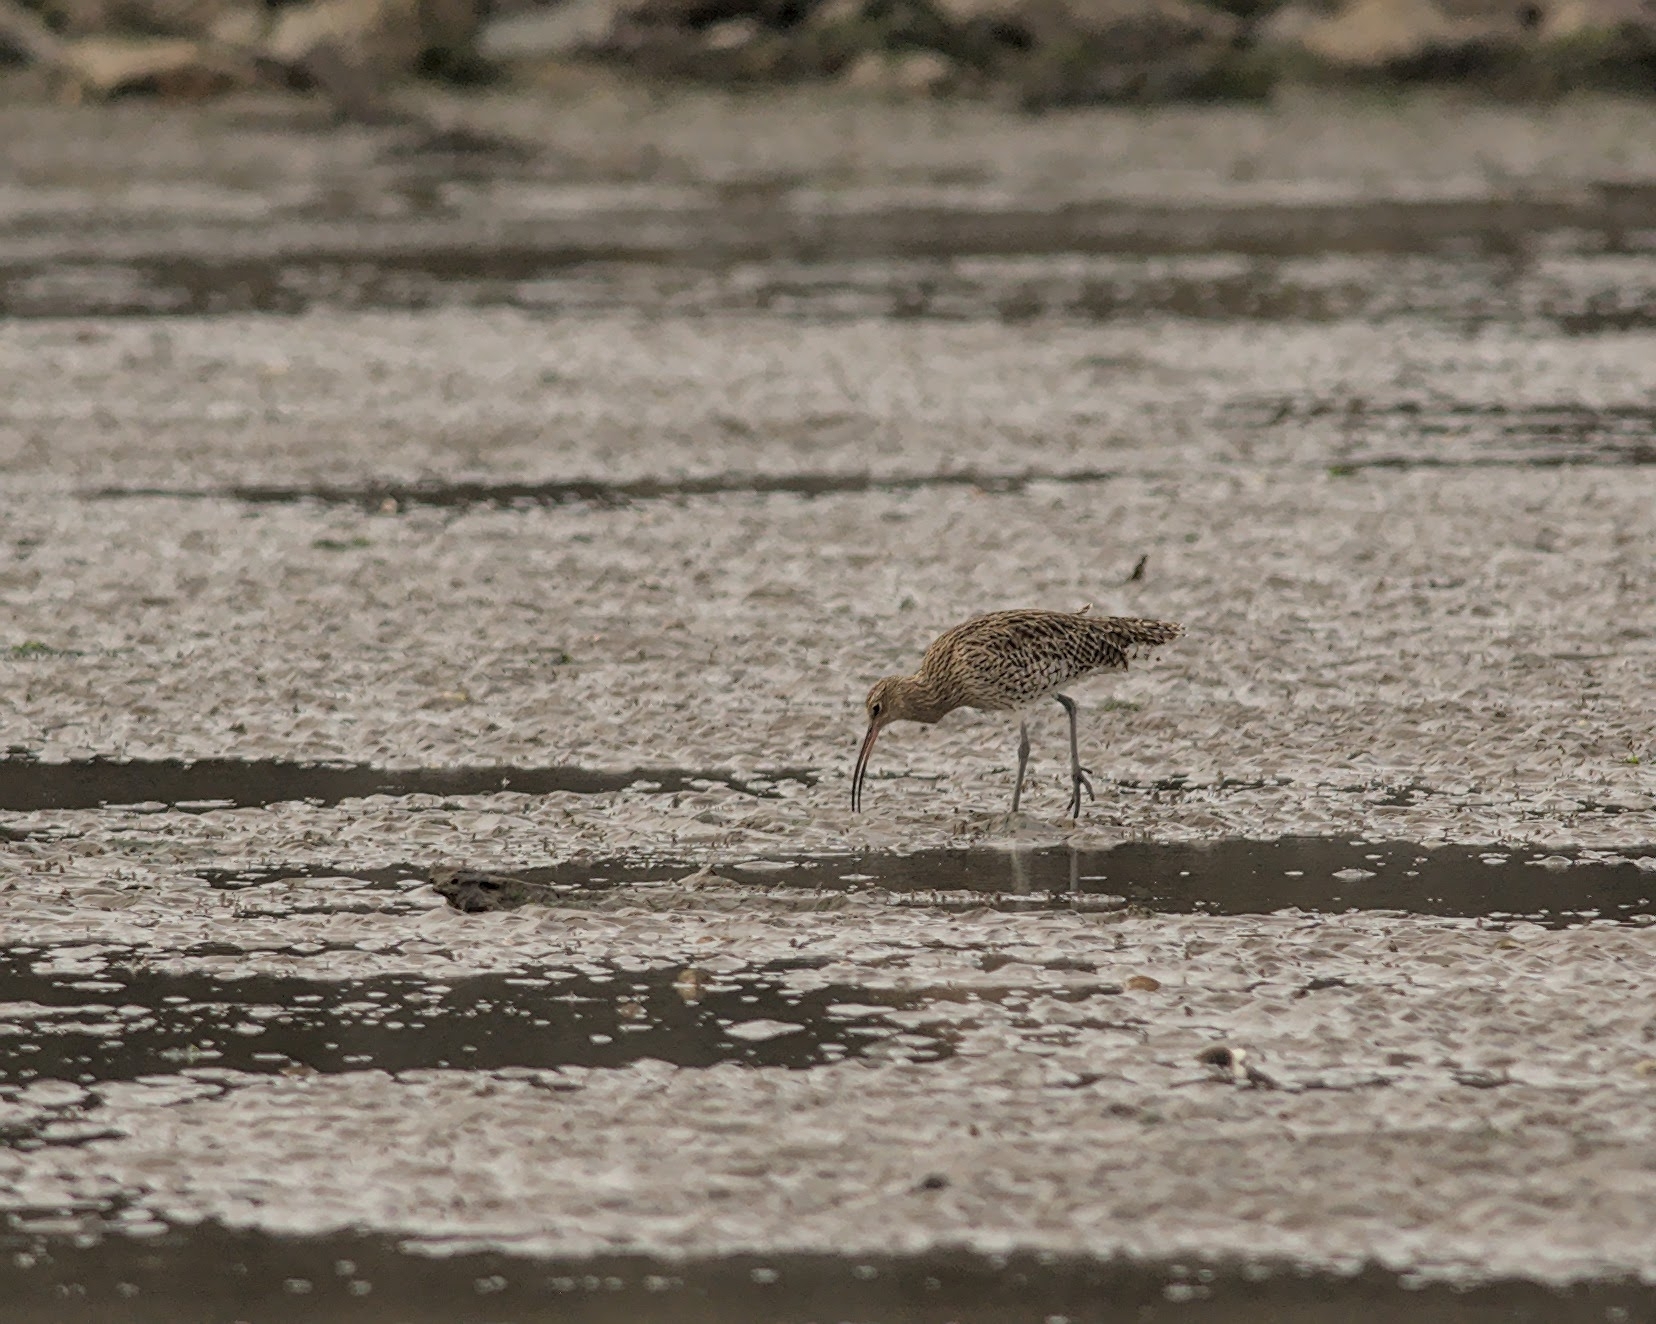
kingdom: Animalia
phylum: Chordata
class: Aves
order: Charadriiformes
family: Scolopacidae
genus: Numenius
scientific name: Numenius arquata
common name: Eurasian curlew
